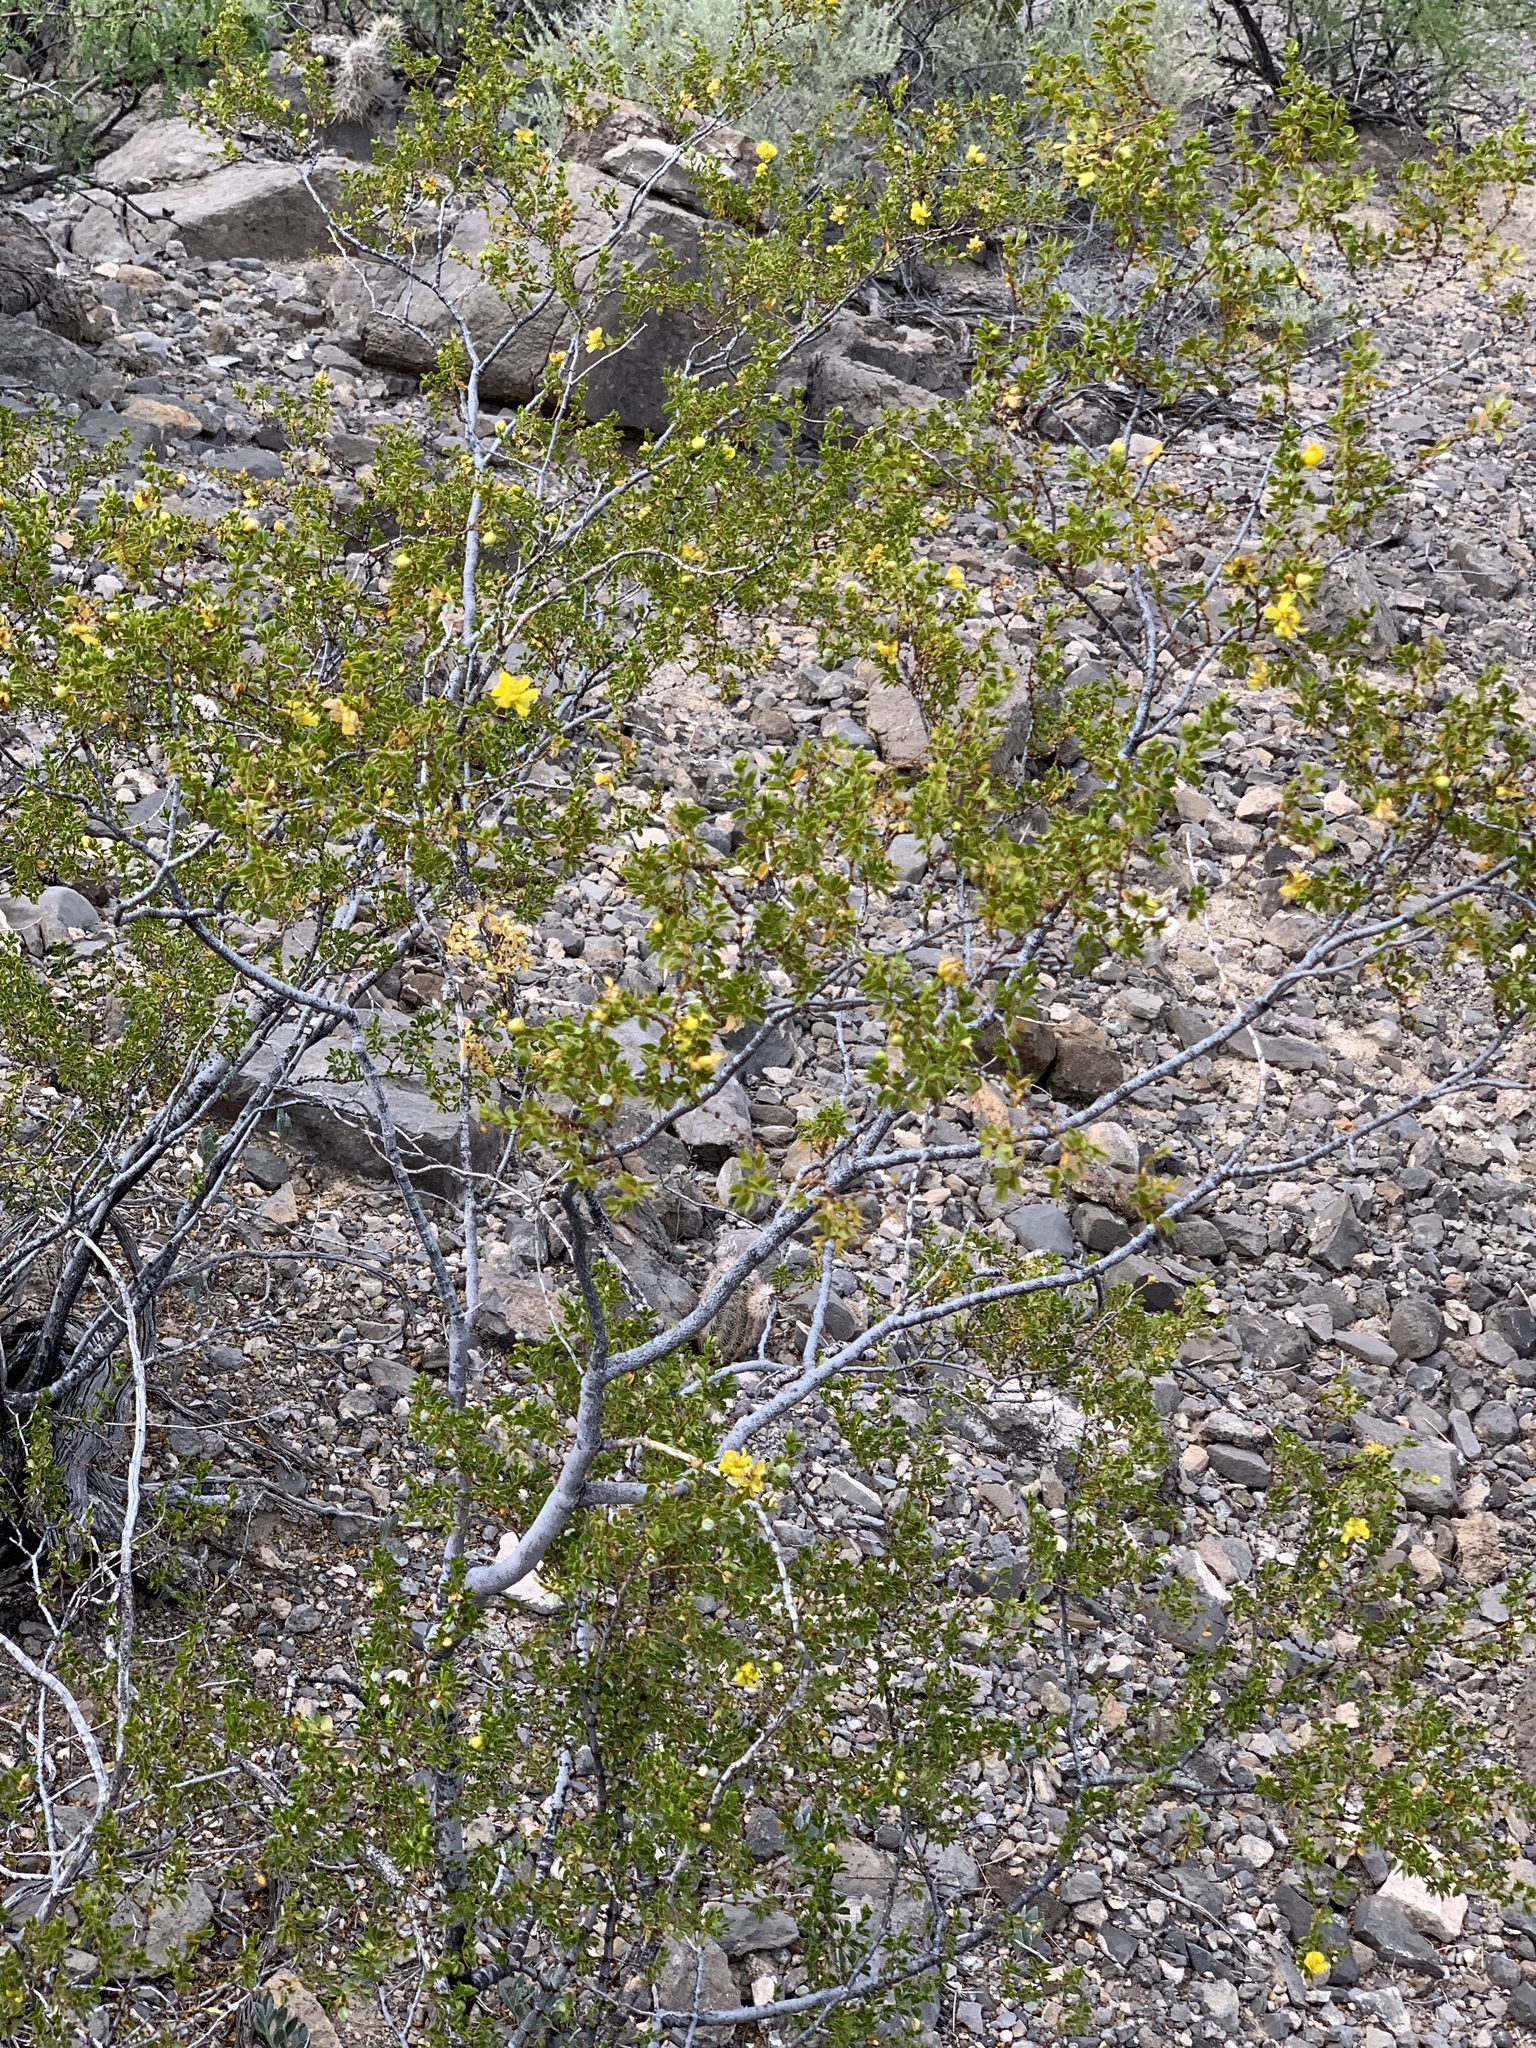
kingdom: Plantae
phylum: Tracheophyta
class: Magnoliopsida
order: Zygophyllales
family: Zygophyllaceae
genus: Larrea
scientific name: Larrea tridentata
